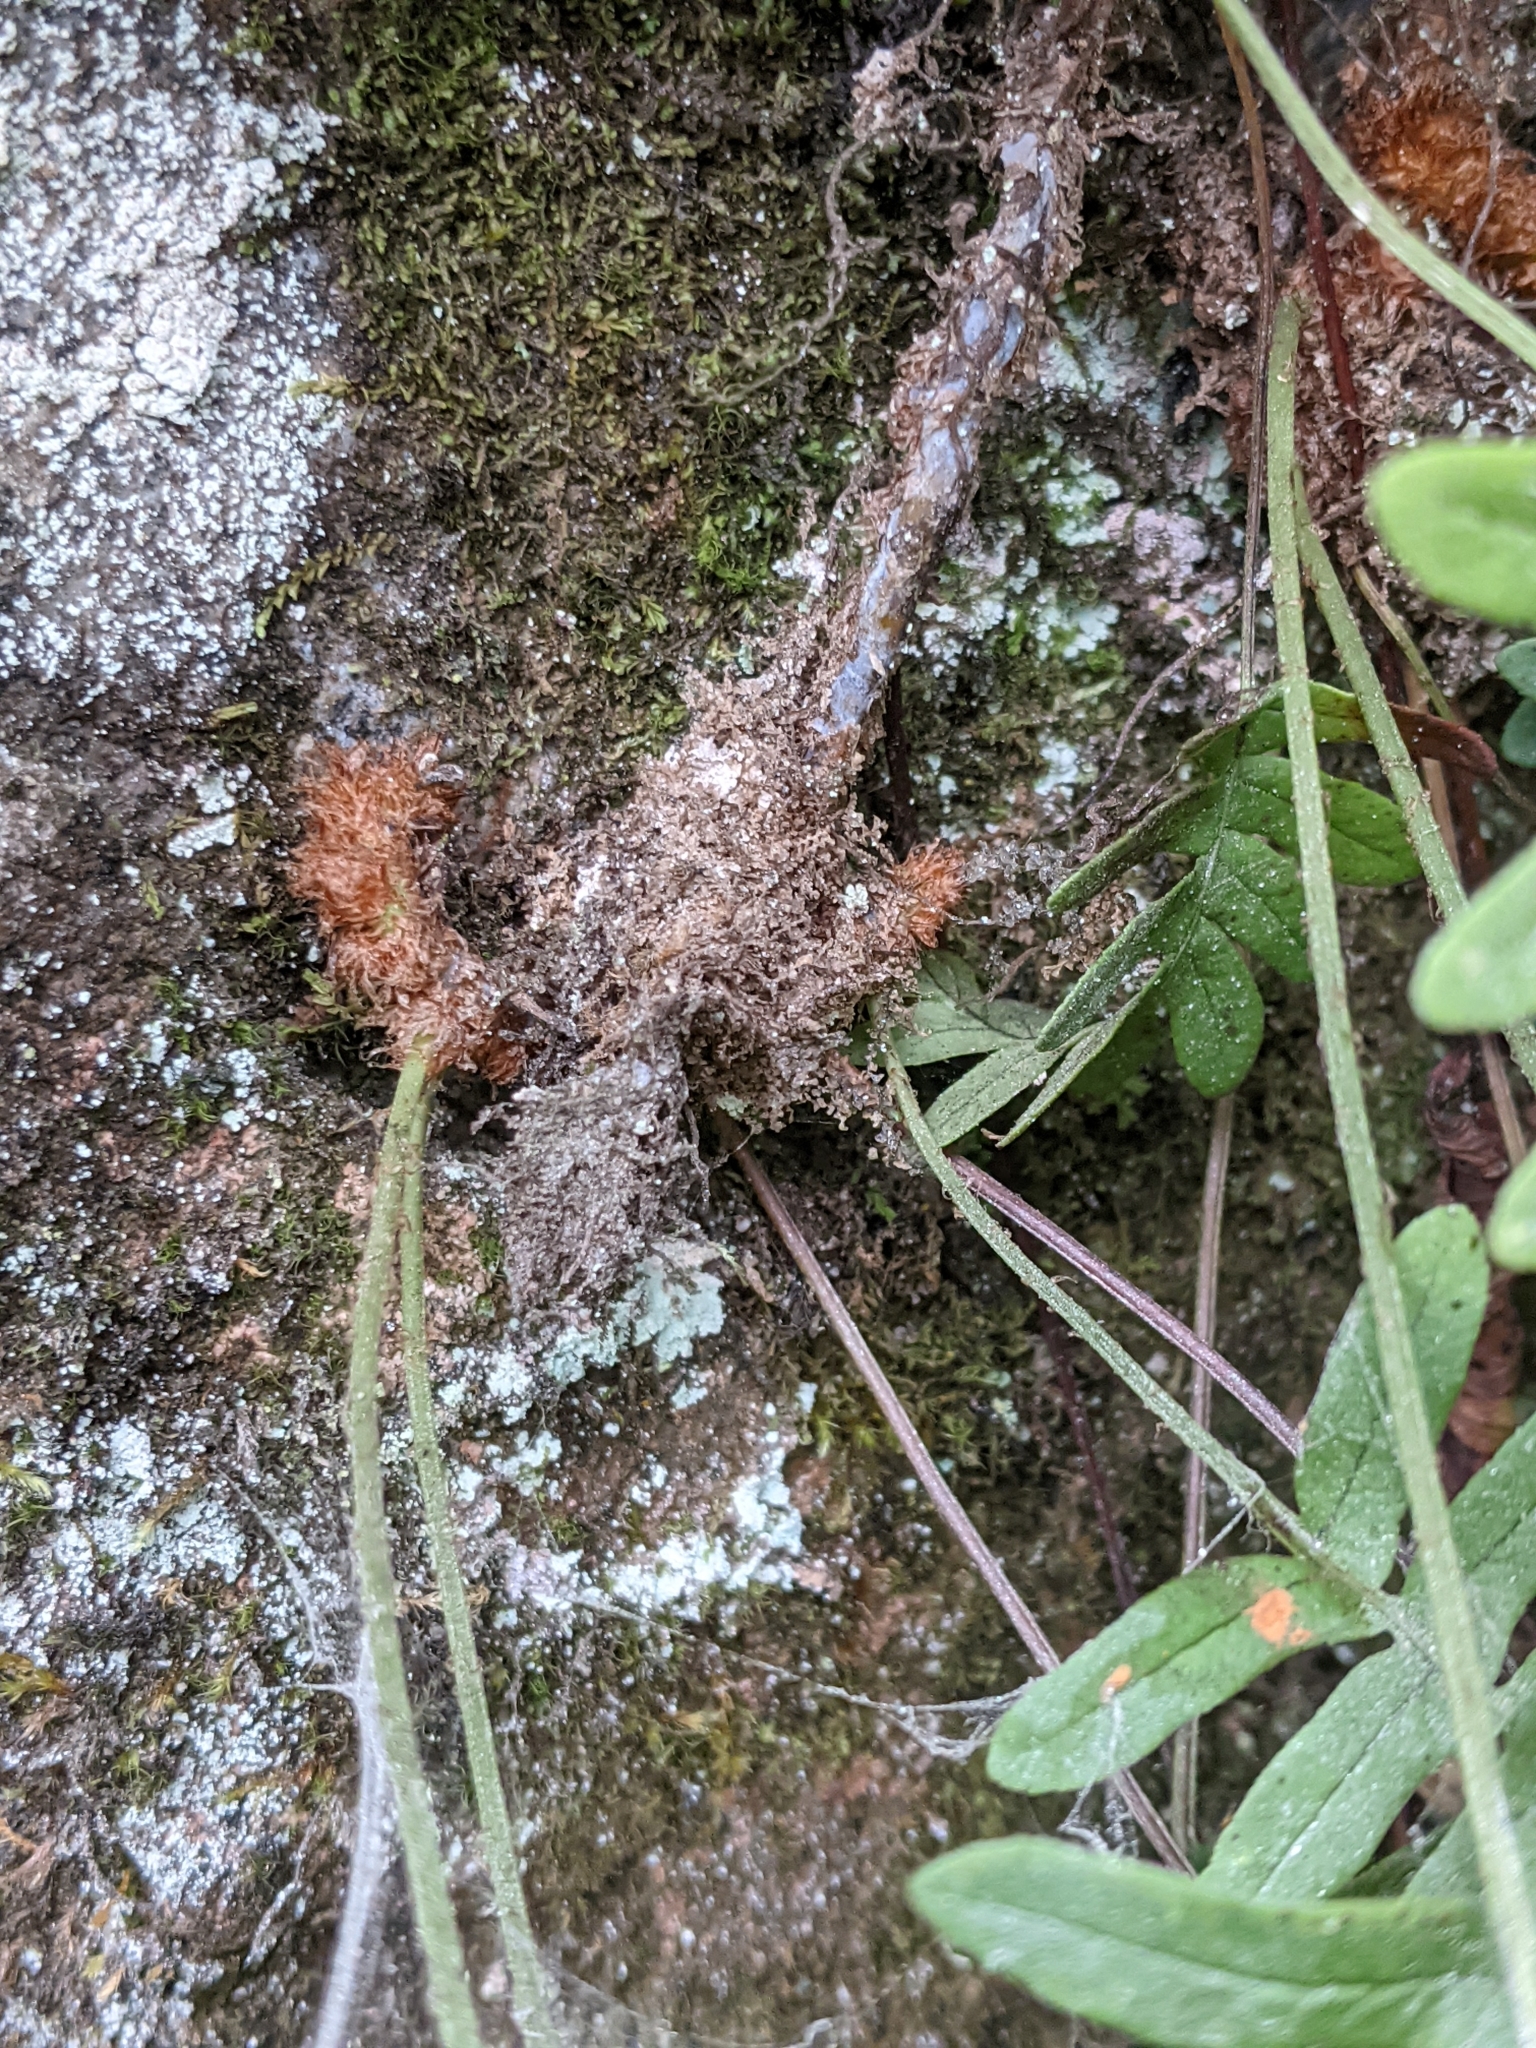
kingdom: Plantae
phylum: Tracheophyta
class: Polypodiopsida
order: Polypodiales
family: Polypodiaceae
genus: Polypodium
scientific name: Polypodium virginianum
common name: American wall fern
